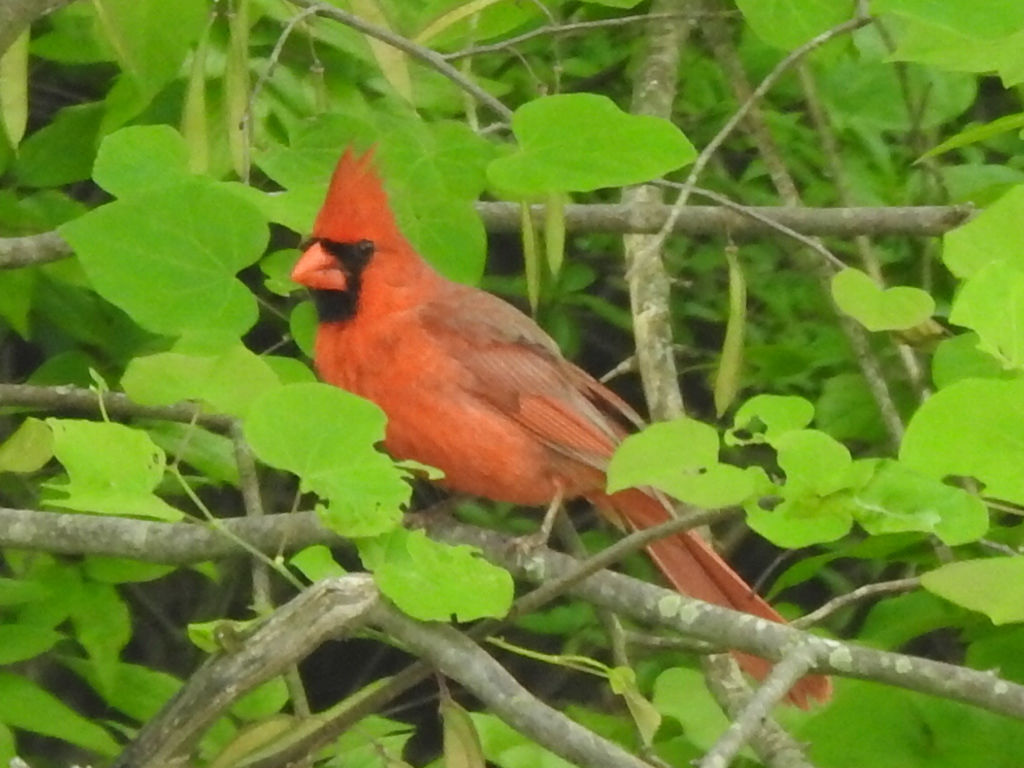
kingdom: Animalia
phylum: Chordata
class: Aves
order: Passeriformes
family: Cardinalidae
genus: Cardinalis
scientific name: Cardinalis cardinalis
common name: Northern cardinal
